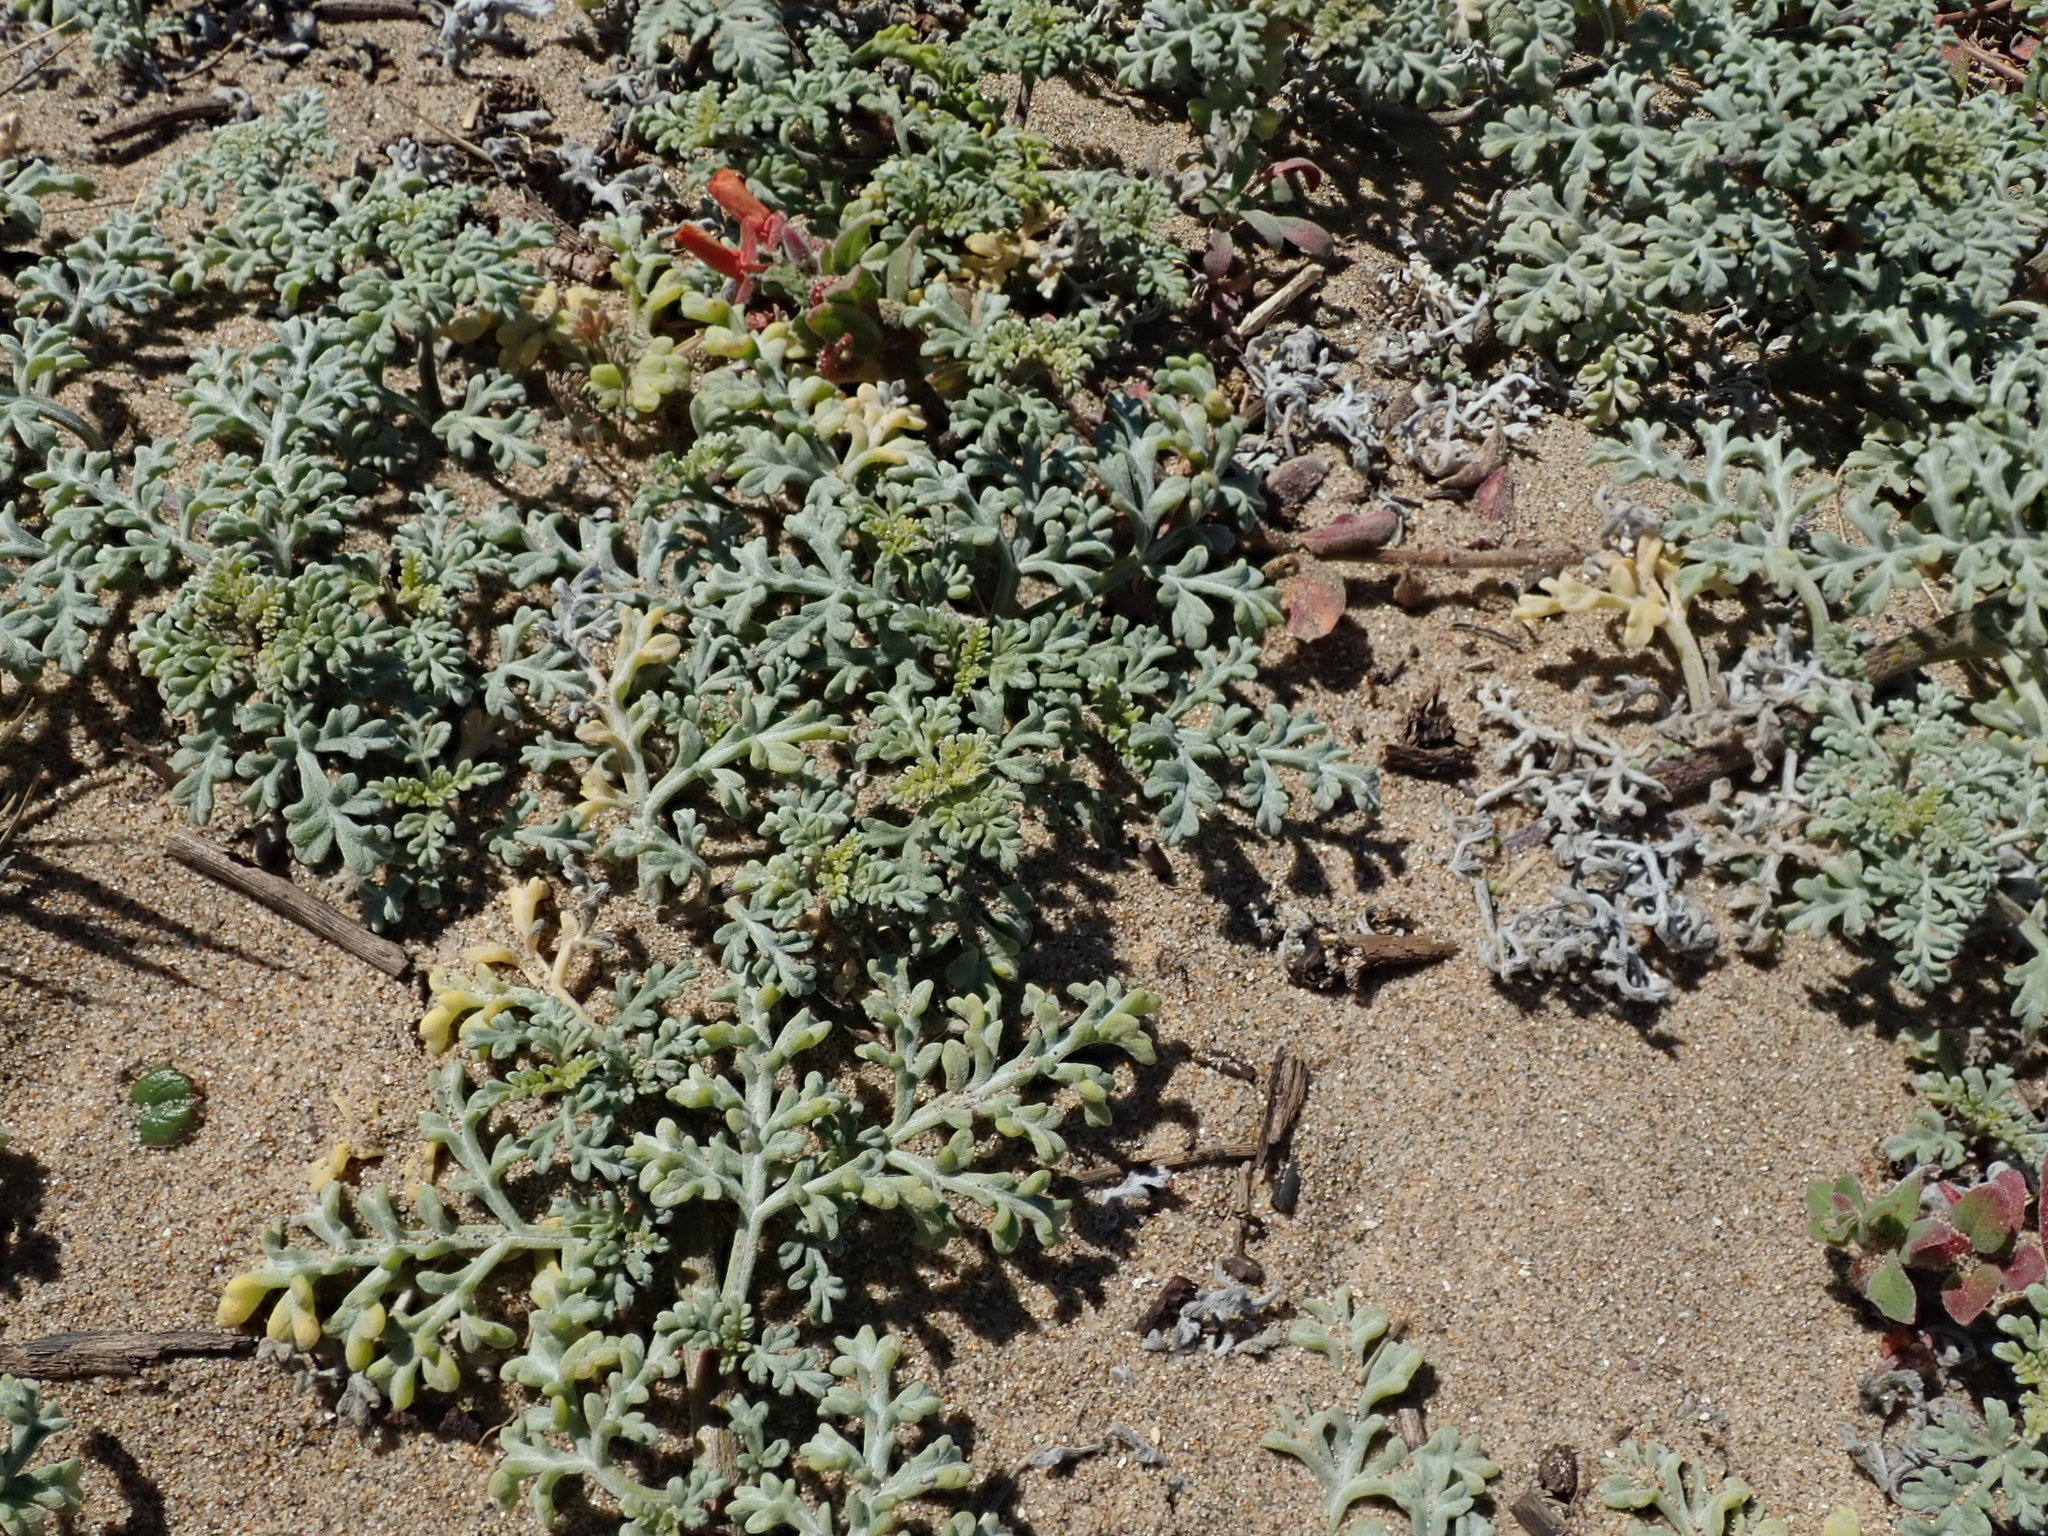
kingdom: Plantae
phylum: Tracheophyta
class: Magnoliopsida
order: Asterales
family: Asteraceae
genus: Ambrosia
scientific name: Ambrosia chamissonis
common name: Beachbur
